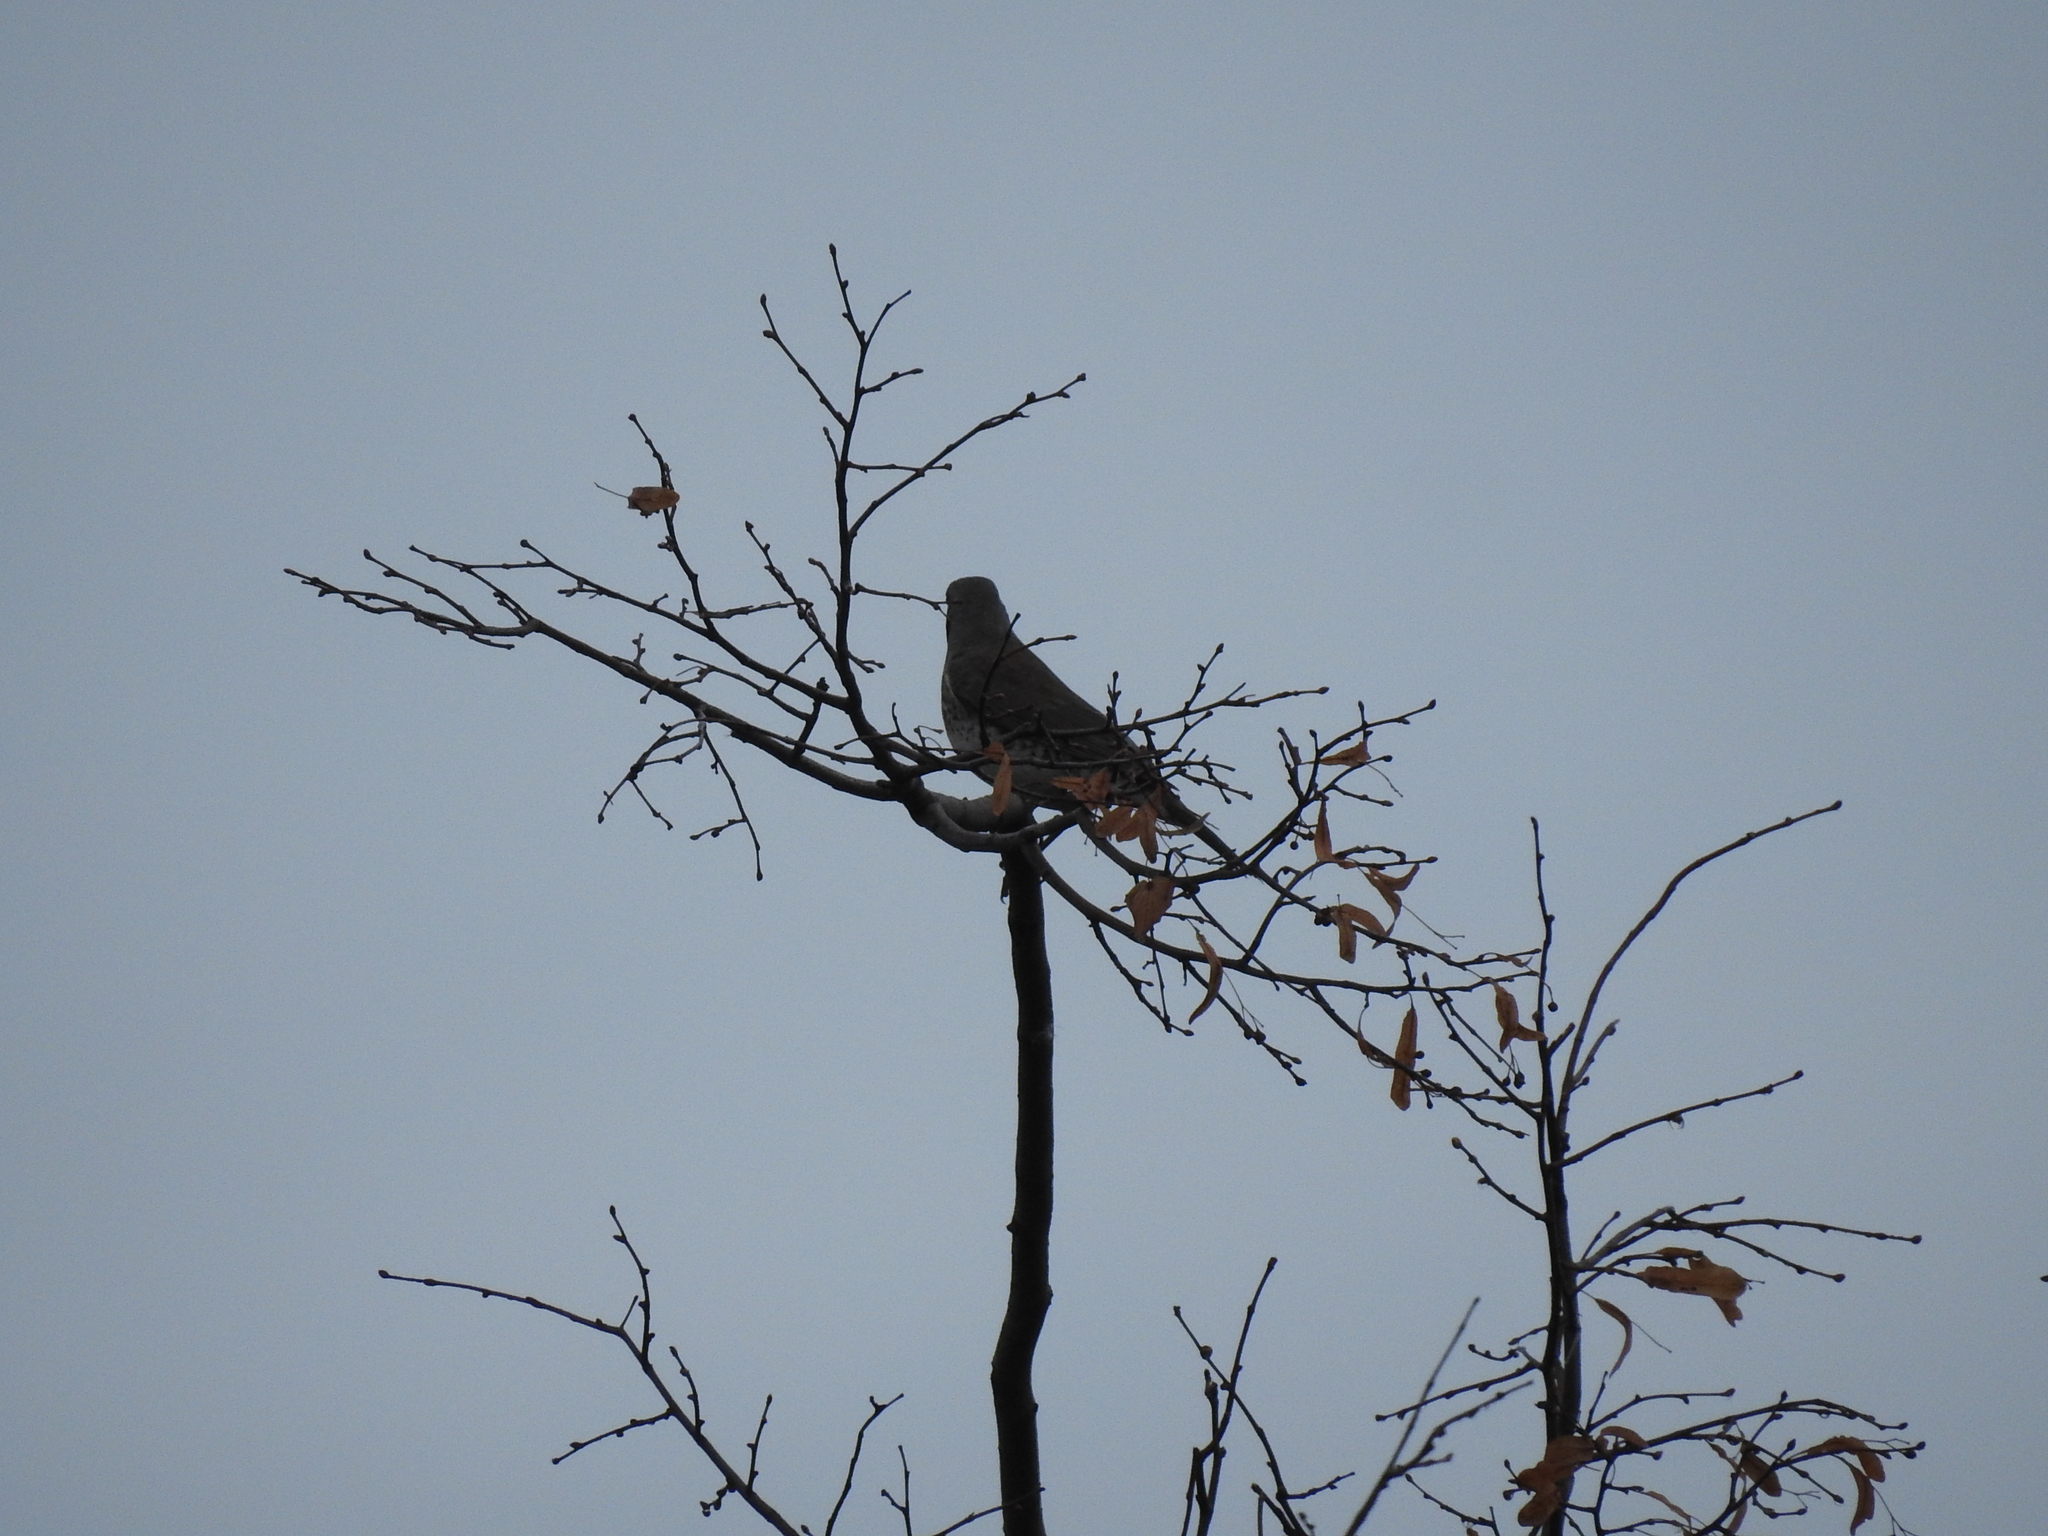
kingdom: Animalia
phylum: Chordata
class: Aves
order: Passeriformes
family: Turdidae
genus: Turdus
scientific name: Turdus pilaris
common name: Fieldfare
